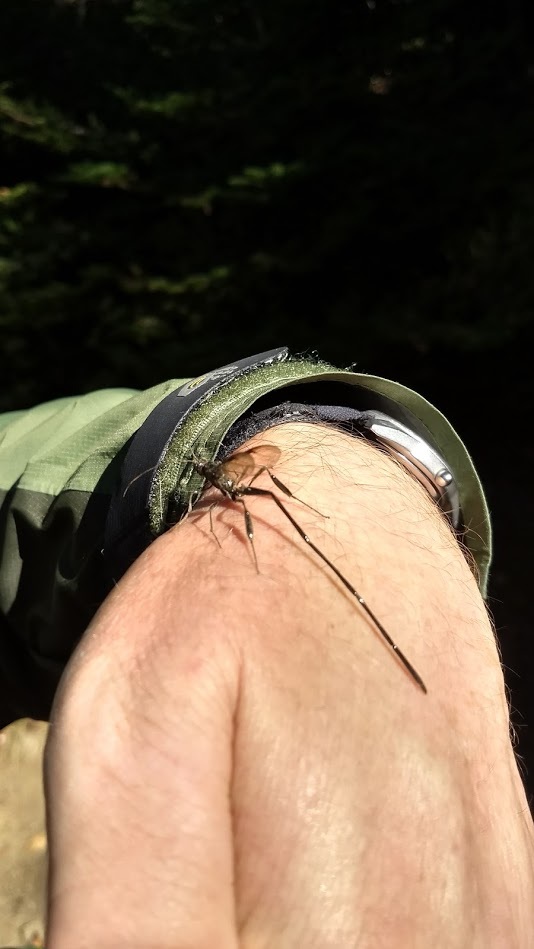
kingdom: Animalia
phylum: Arthropoda
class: Insecta
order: Hymenoptera
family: Pelecinidae
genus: Pelecinus
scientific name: Pelecinus polyturator
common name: American pelecinid wasp
